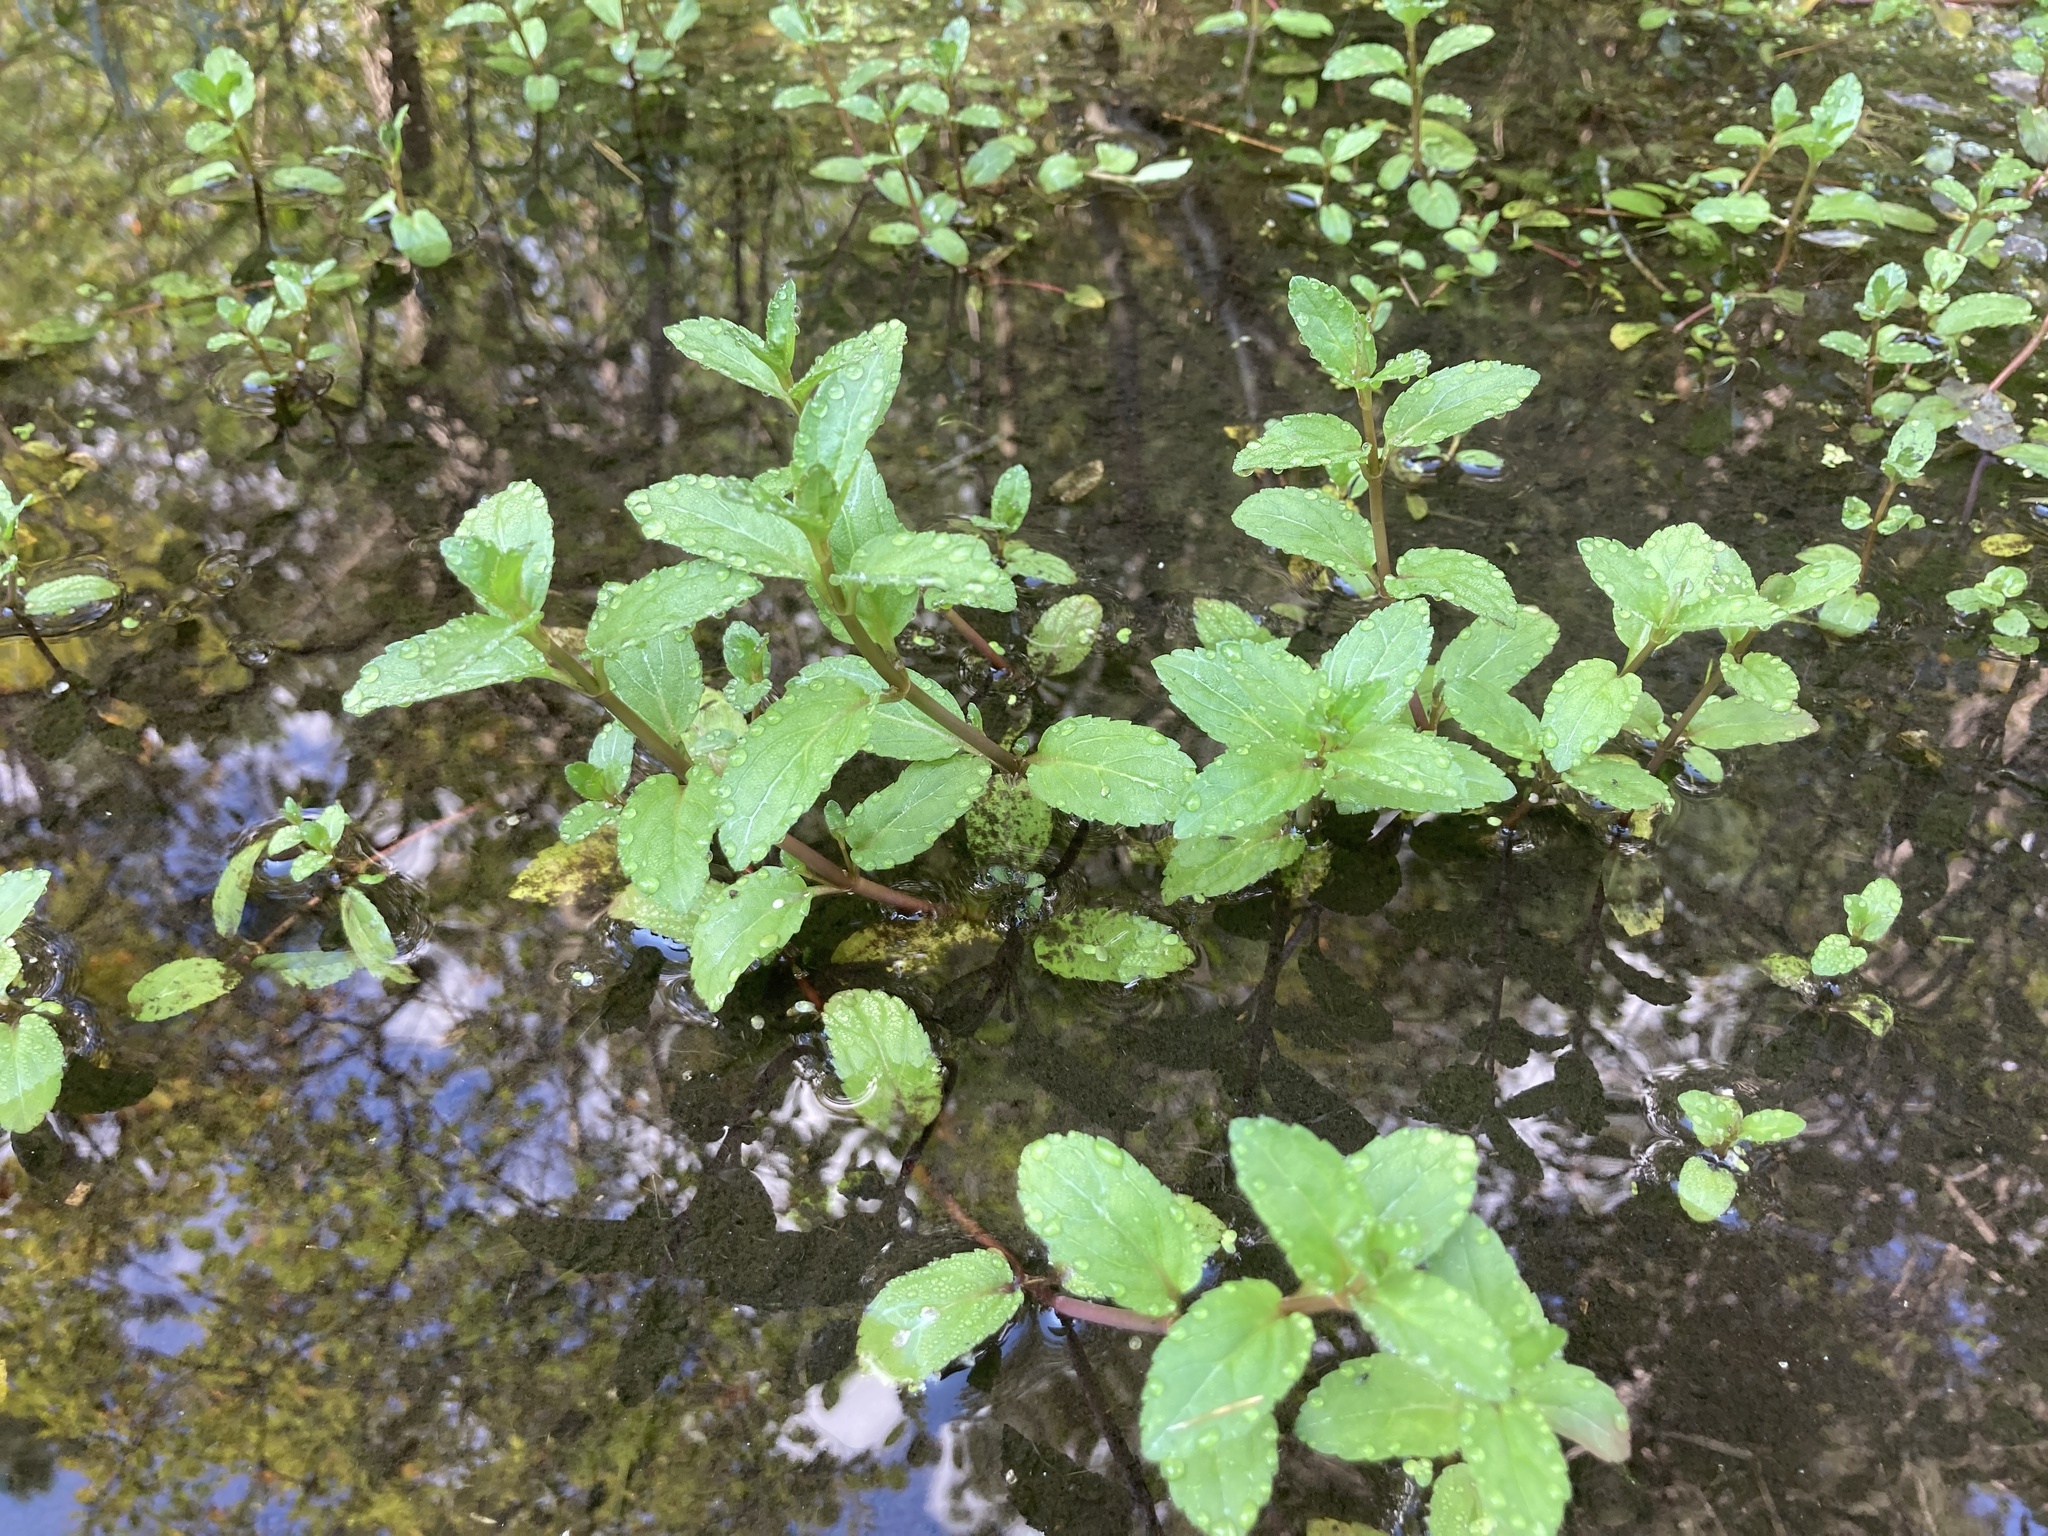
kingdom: Plantae
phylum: Tracheophyta
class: Magnoliopsida
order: Lamiales
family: Plantaginaceae
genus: Veronica
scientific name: Veronica americana
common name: American brooklime
